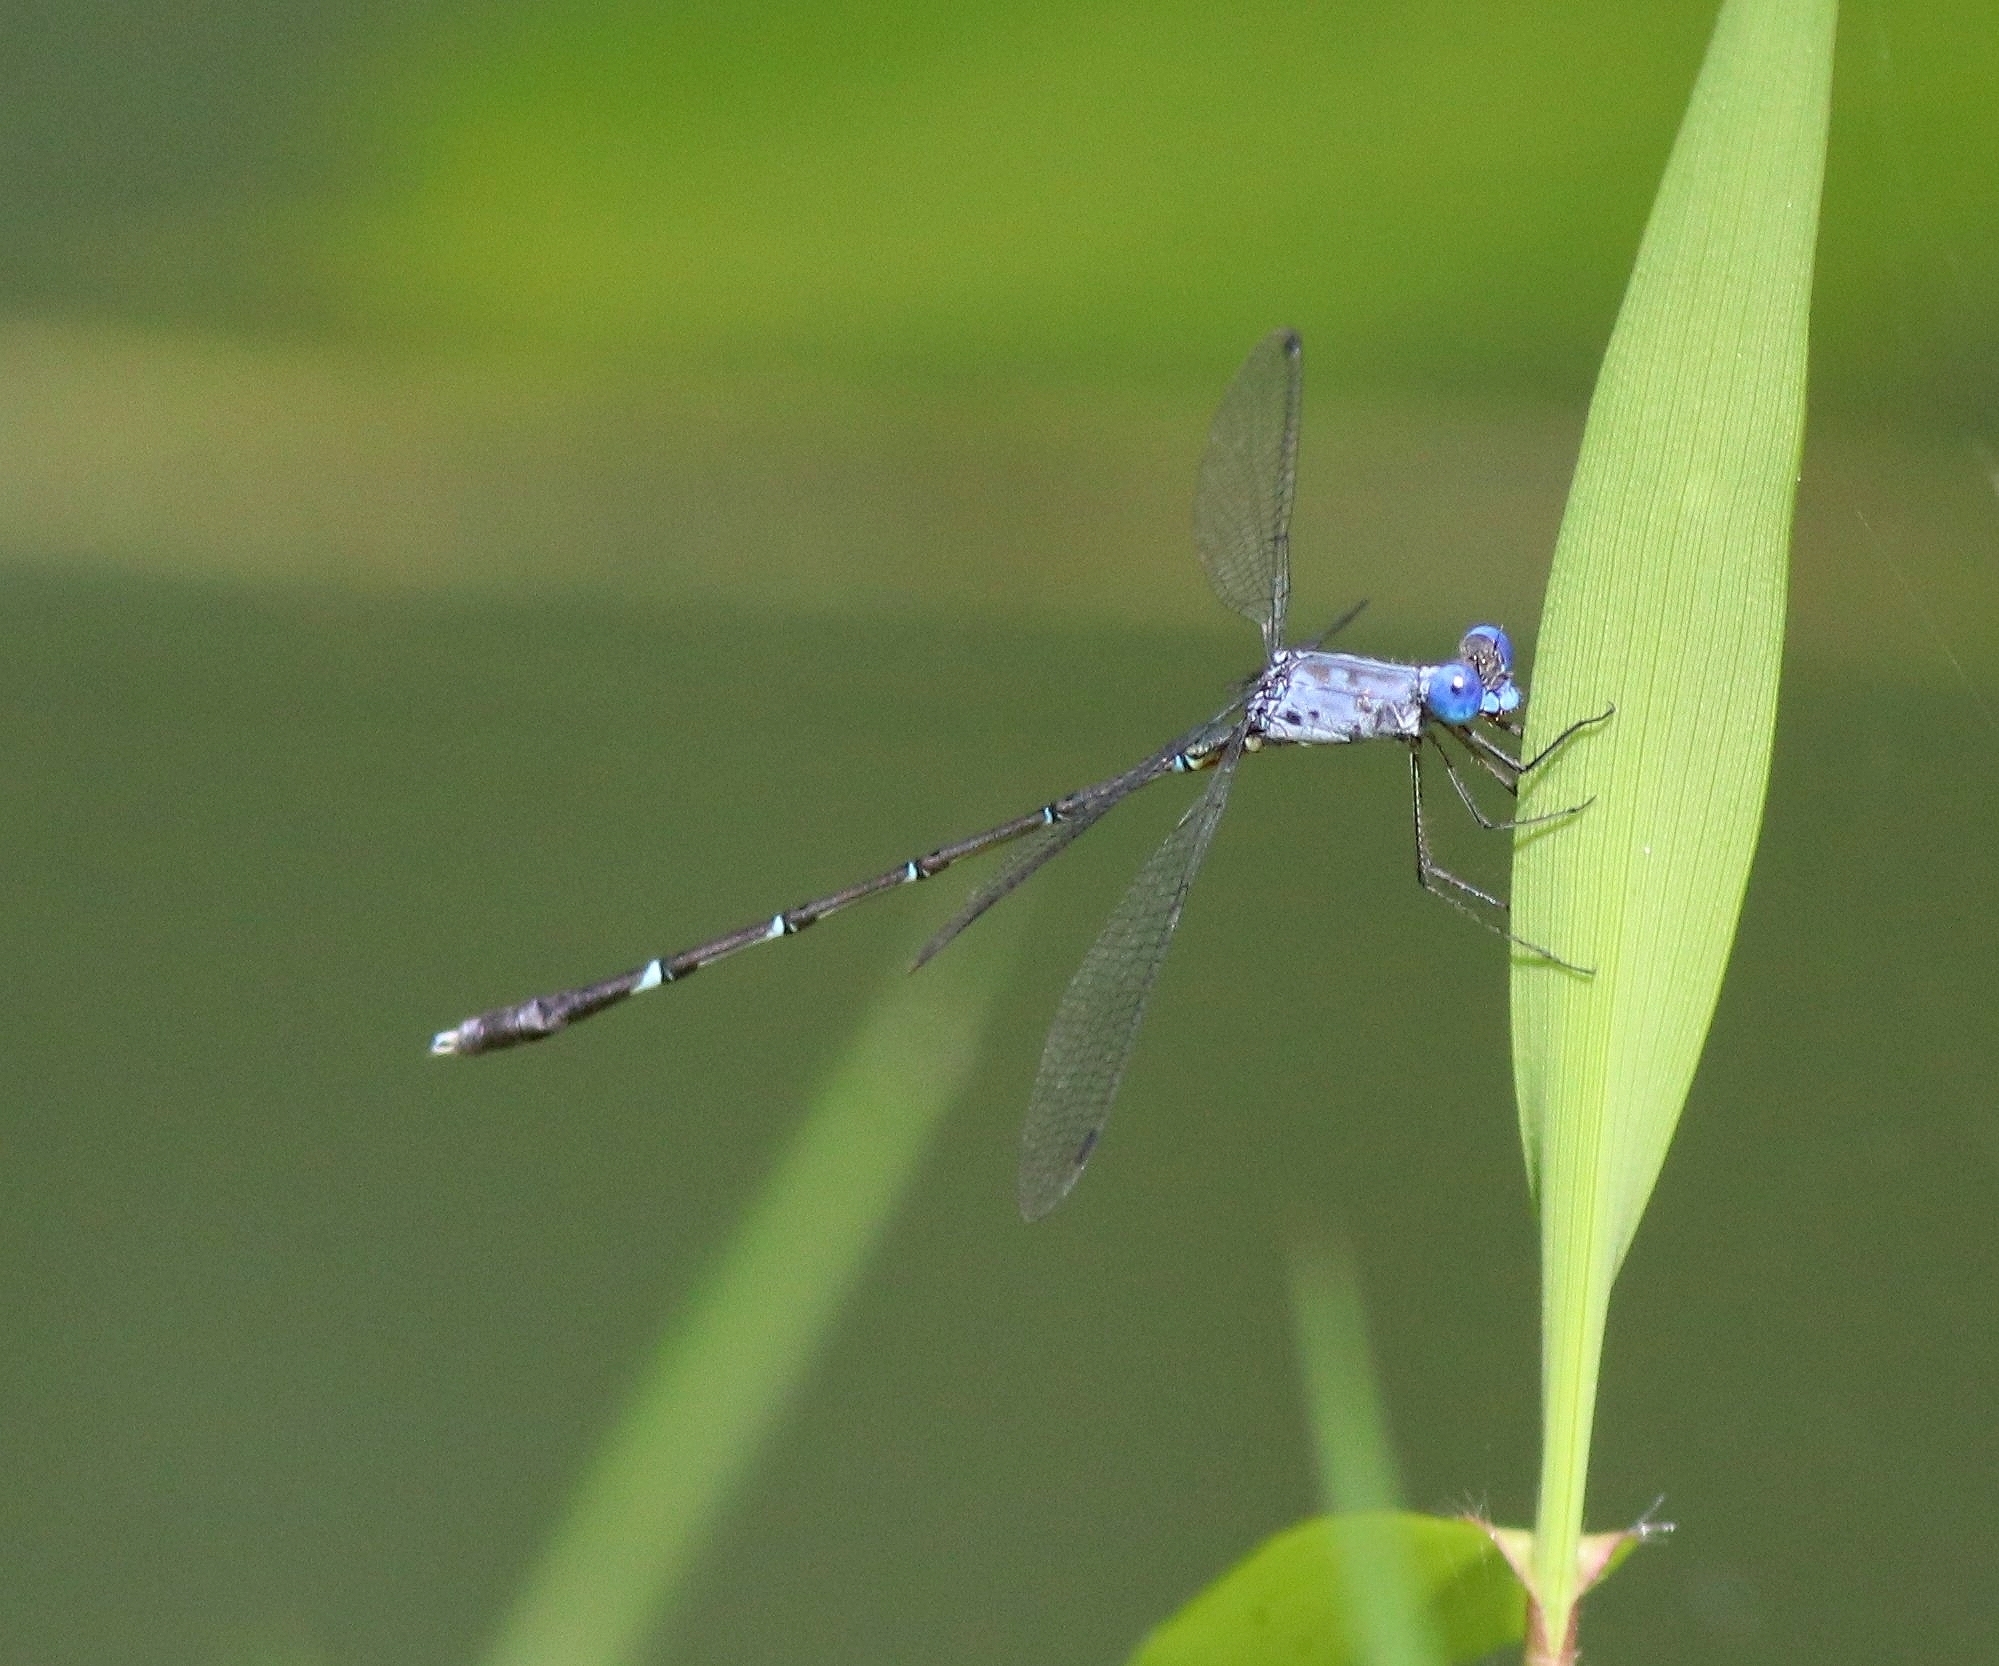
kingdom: Animalia
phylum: Arthropoda
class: Insecta
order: Odonata
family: Lestidae
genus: Lestes
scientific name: Lestes dorothea
